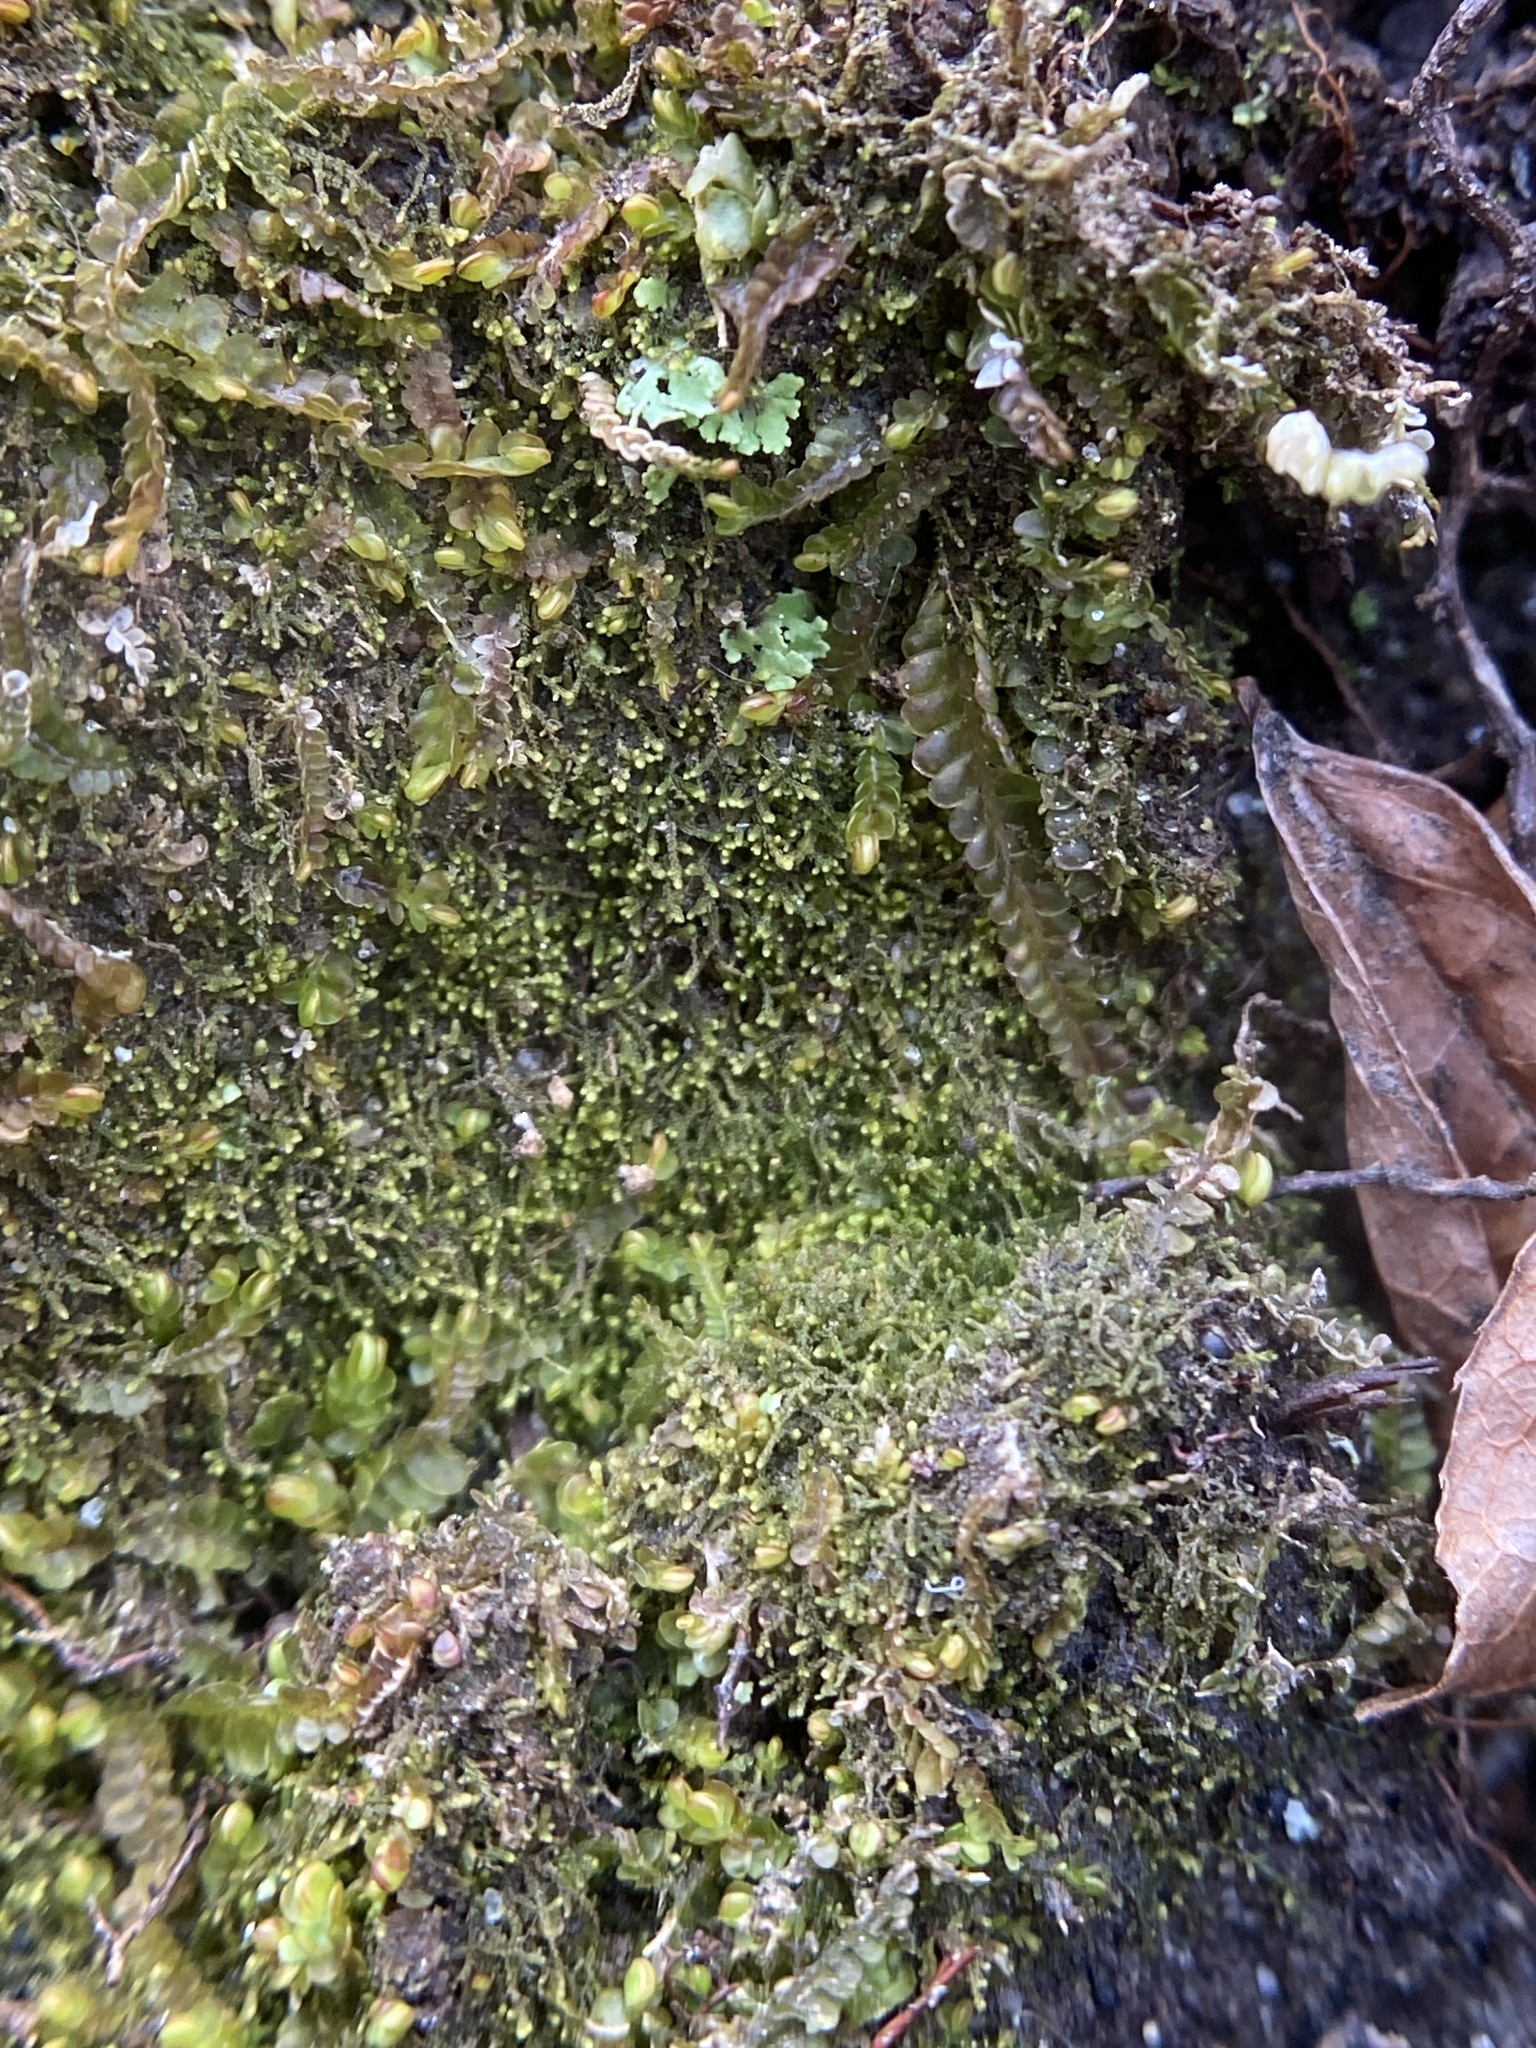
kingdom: Plantae
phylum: Marchantiophyta
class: Jungermanniopsida
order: Jungermanniales
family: Lepidoziaceae
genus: Kurzia
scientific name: Kurzia sylvatica
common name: Wood fingerwort
